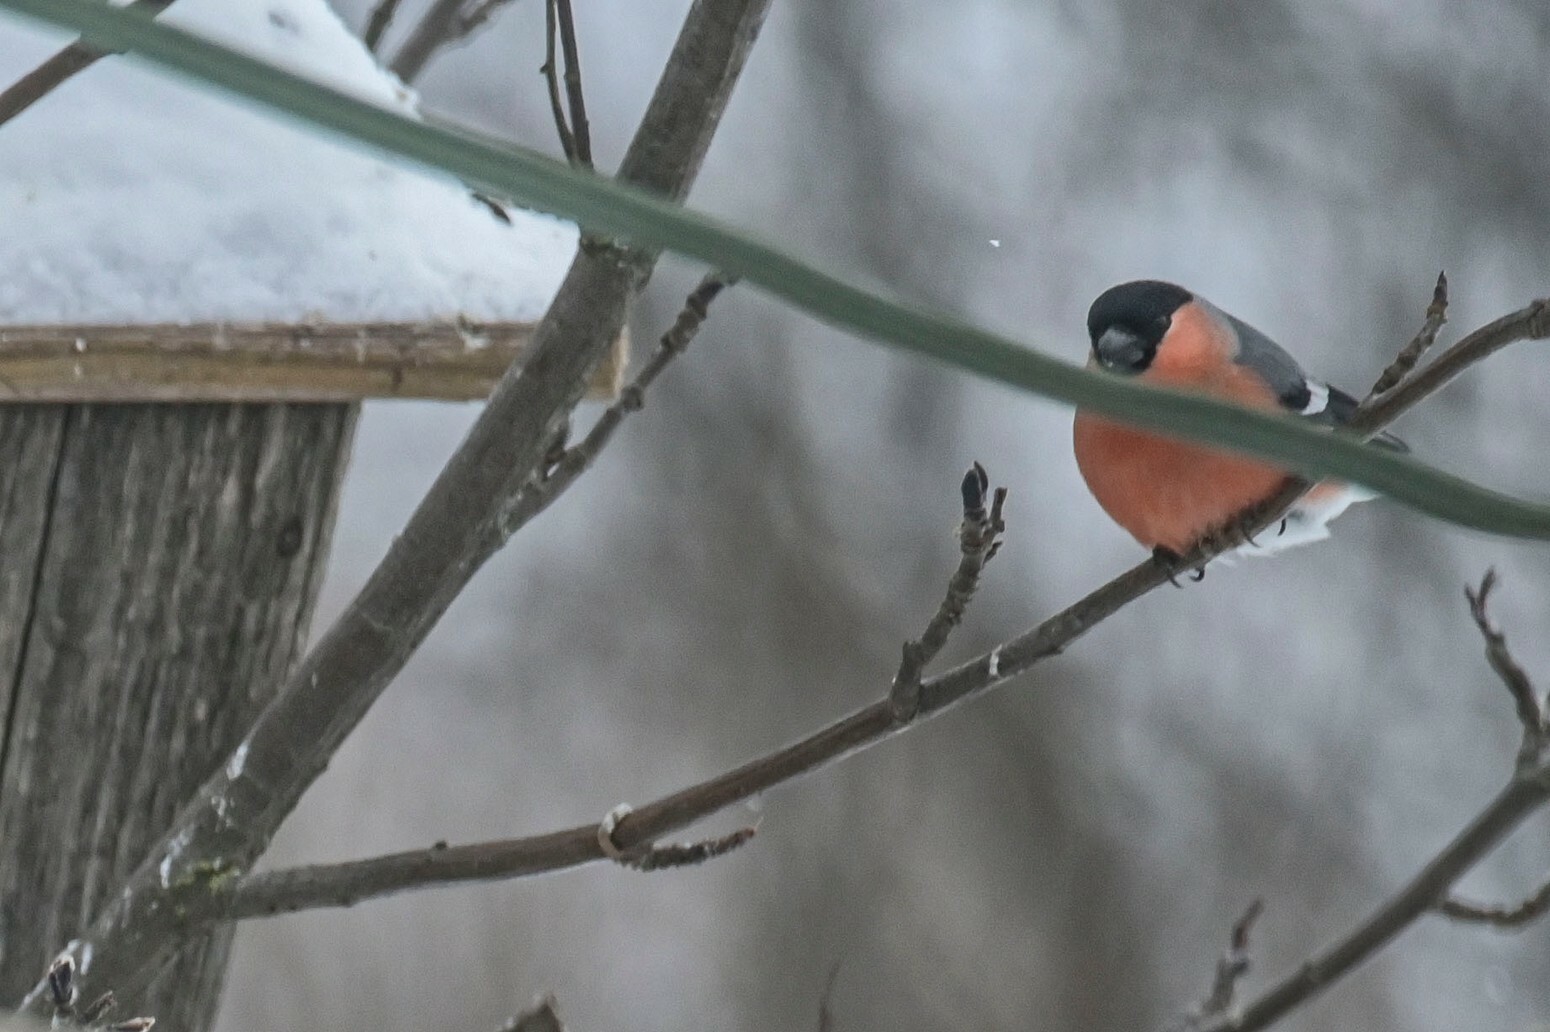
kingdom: Animalia
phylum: Chordata
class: Aves
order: Passeriformes
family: Fringillidae
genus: Pyrrhula
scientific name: Pyrrhula pyrrhula
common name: Eurasian bullfinch
